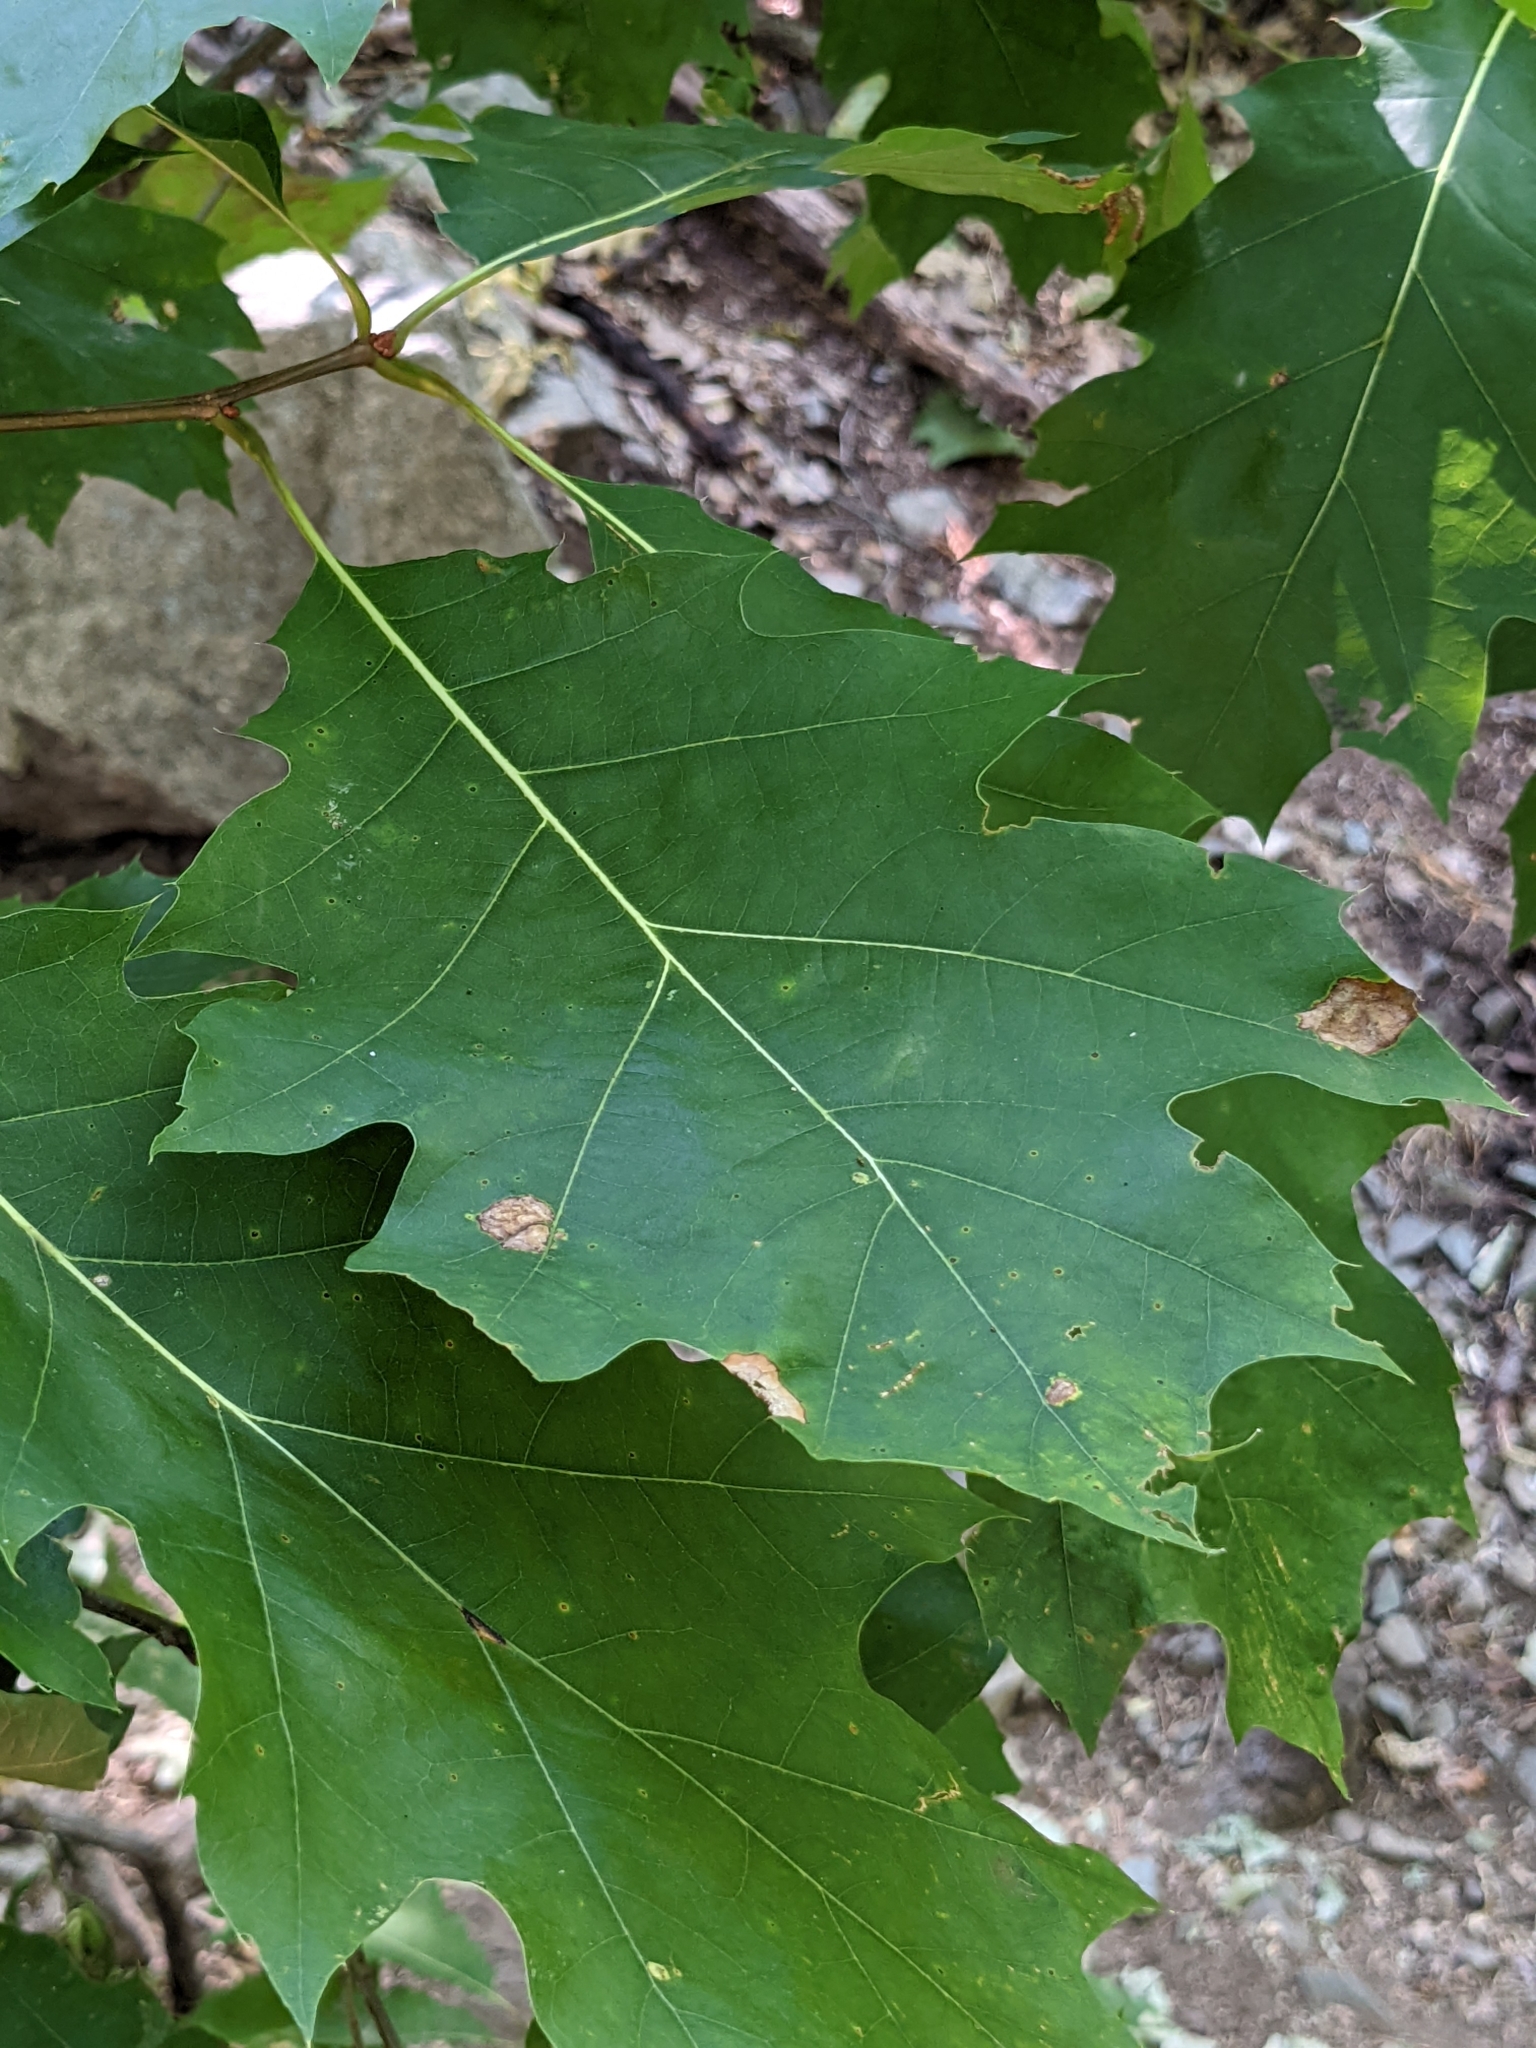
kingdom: Plantae
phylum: Tracheophyta
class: Magnoliopsida
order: Fagales
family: Fagaceae
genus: Quercus
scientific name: Quercus rubra
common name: Red oak
